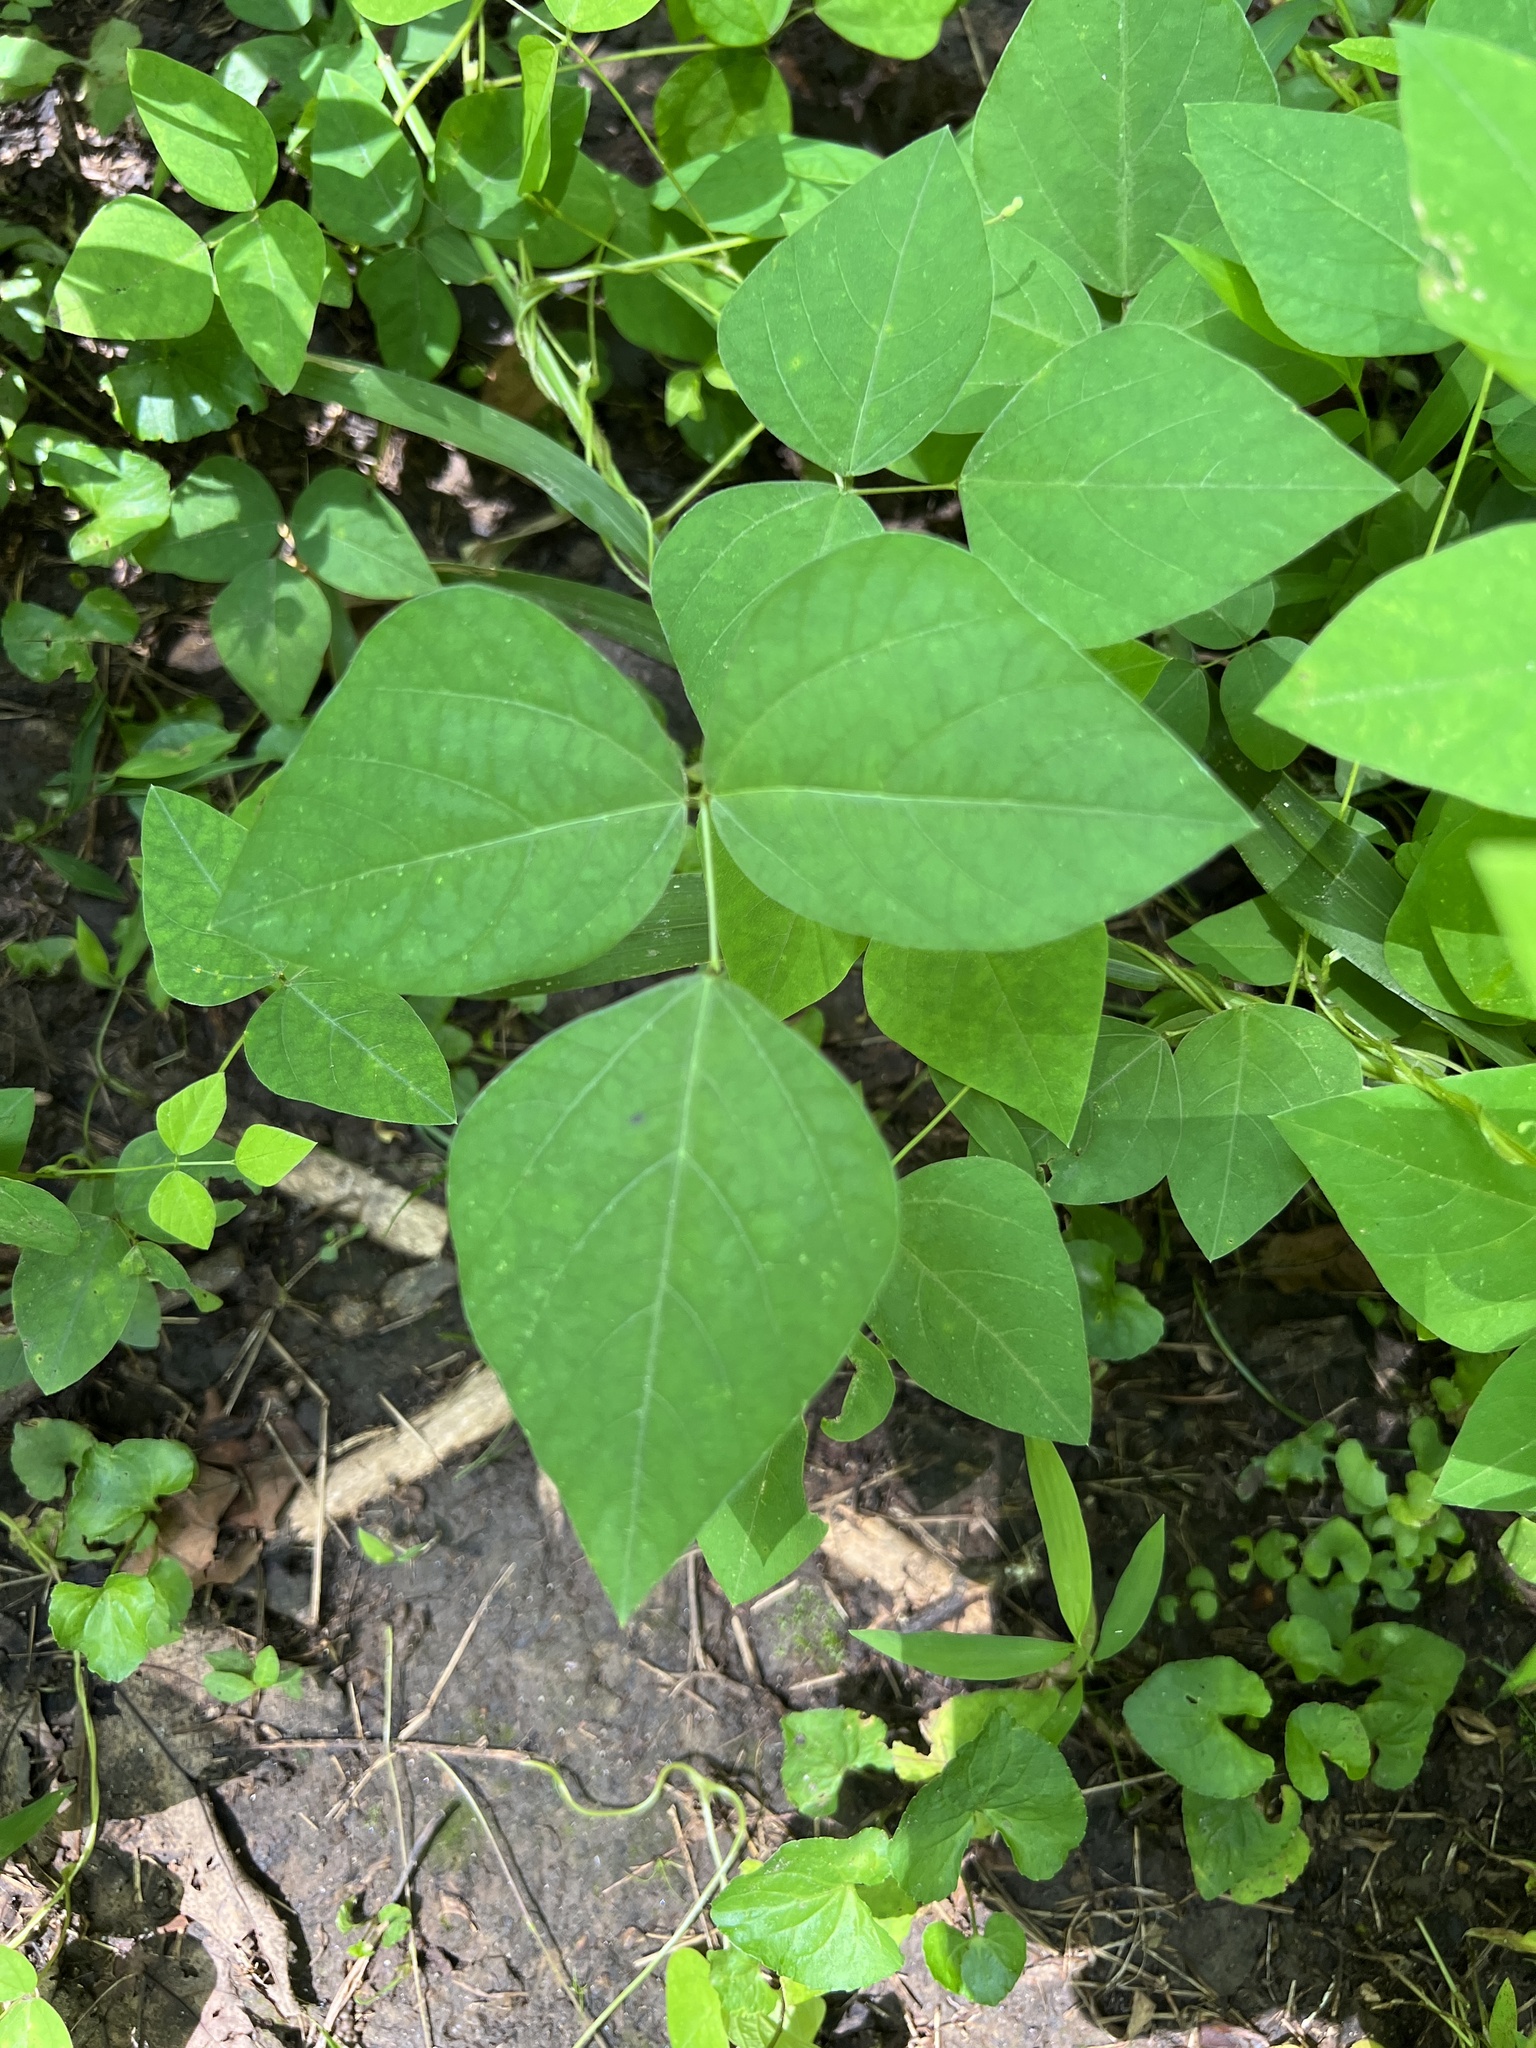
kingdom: Plantae
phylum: Tracheophyta
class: Magnoliopsida
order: Fabales
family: Fabaceae
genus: Amphicarpaea
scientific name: Amphicarpaea bracteata
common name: American hog peanut
